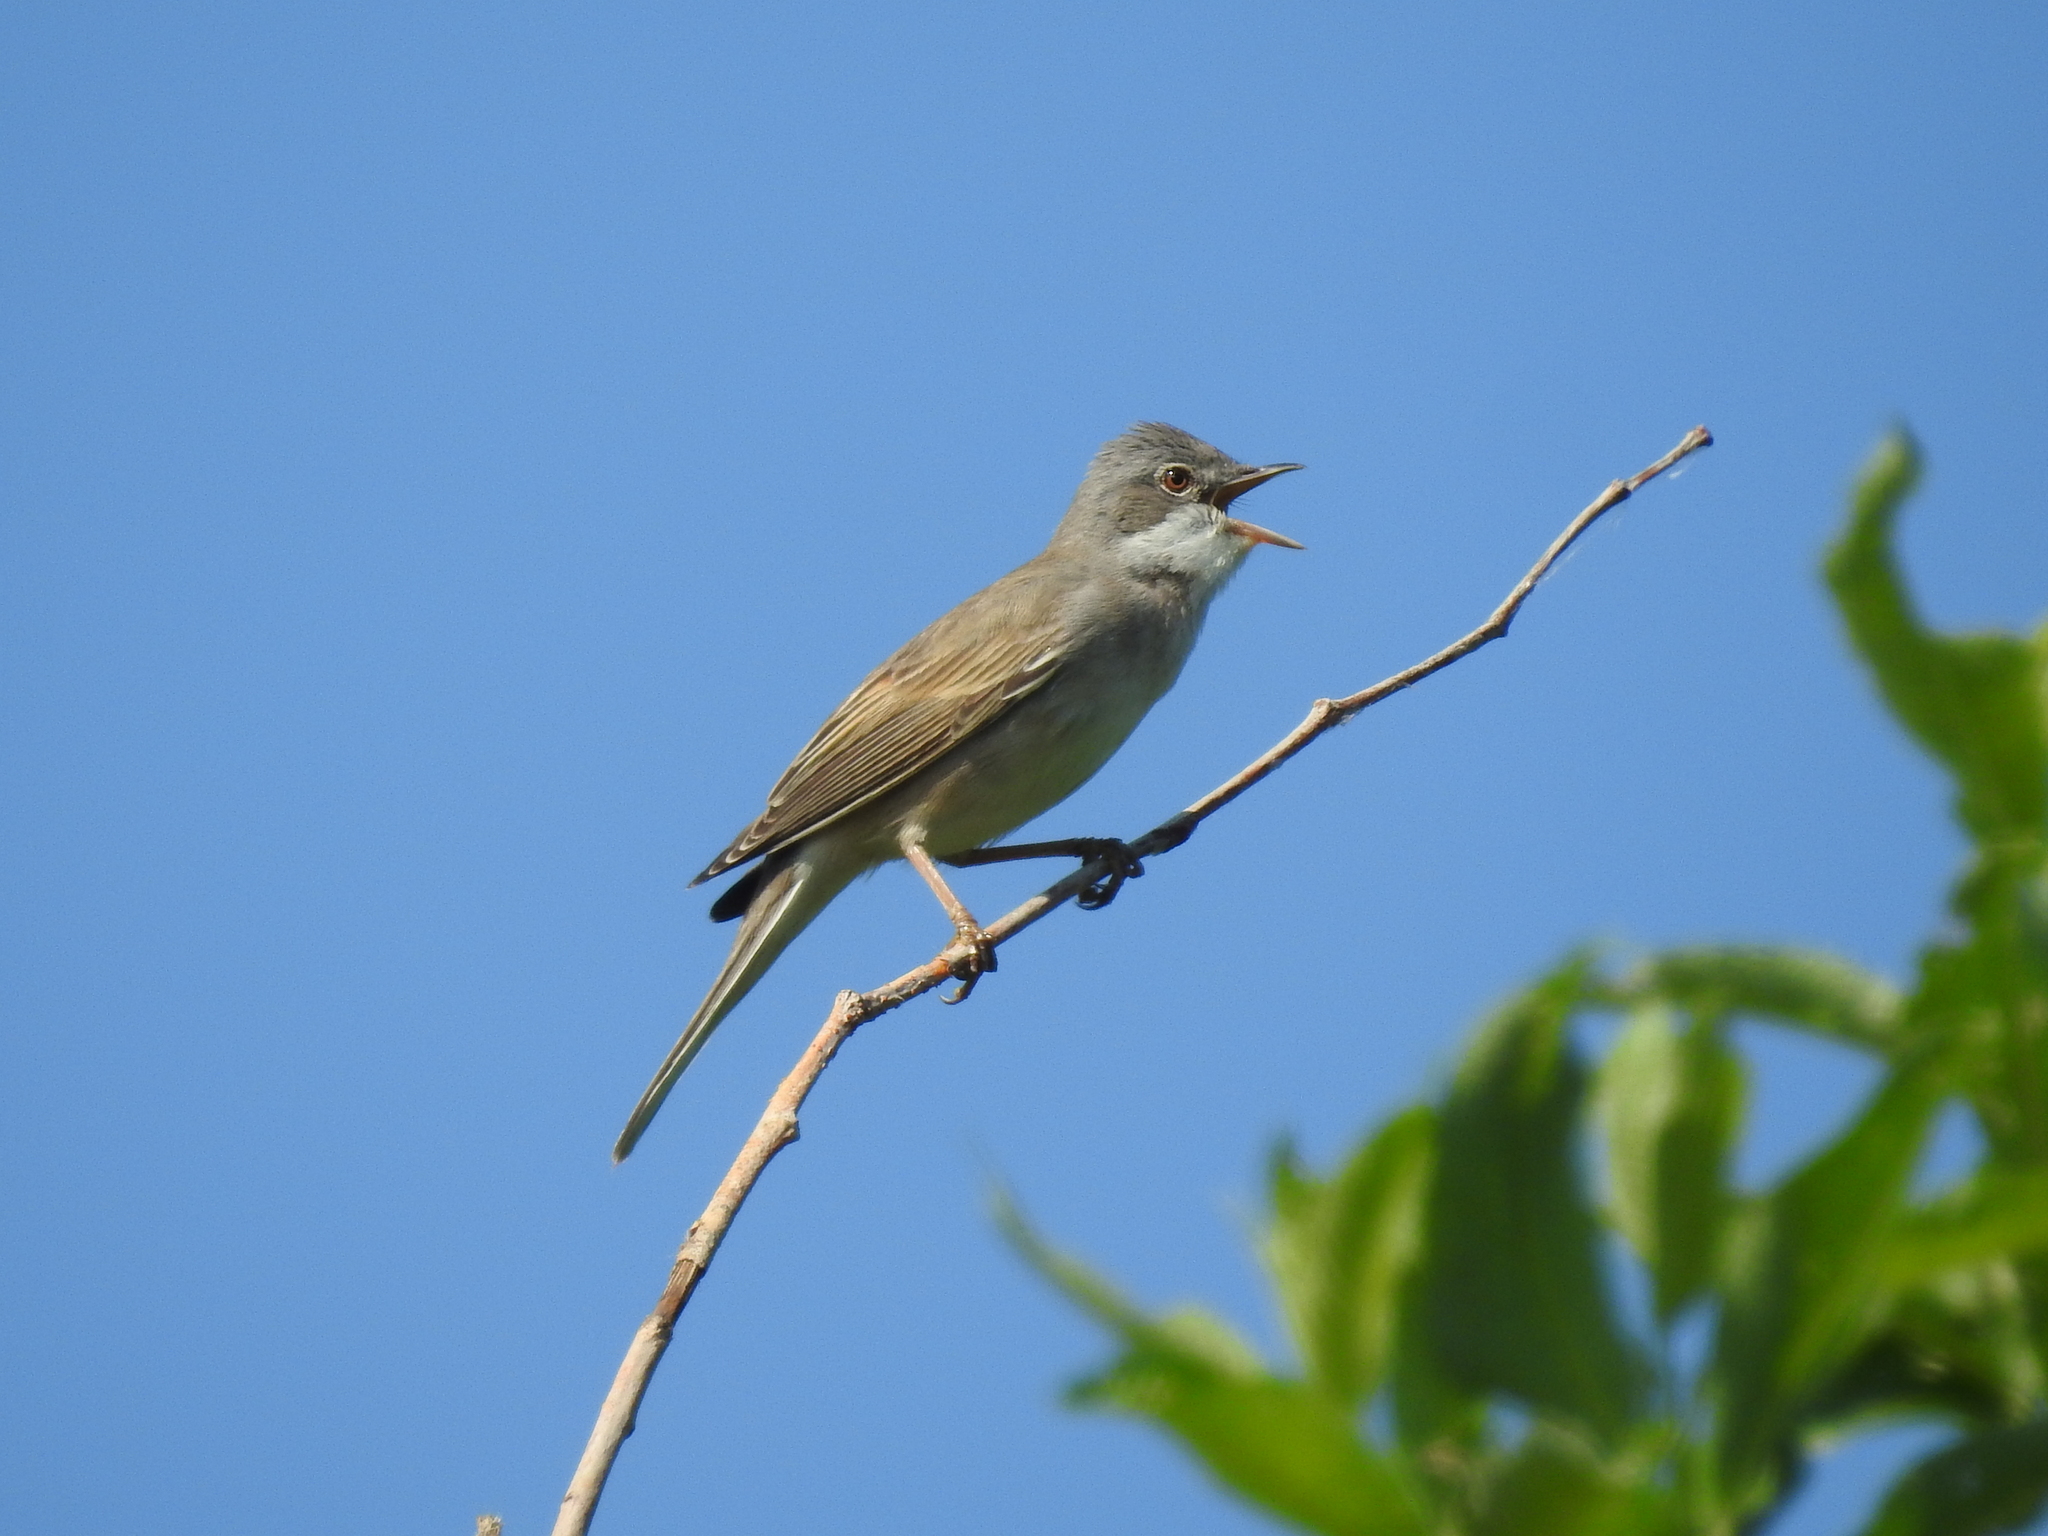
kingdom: Animalia
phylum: Chordata
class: Aves
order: Passeriformes
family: Sylviidae
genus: Sylvia
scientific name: Sylvia communis
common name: Common whitethroat
